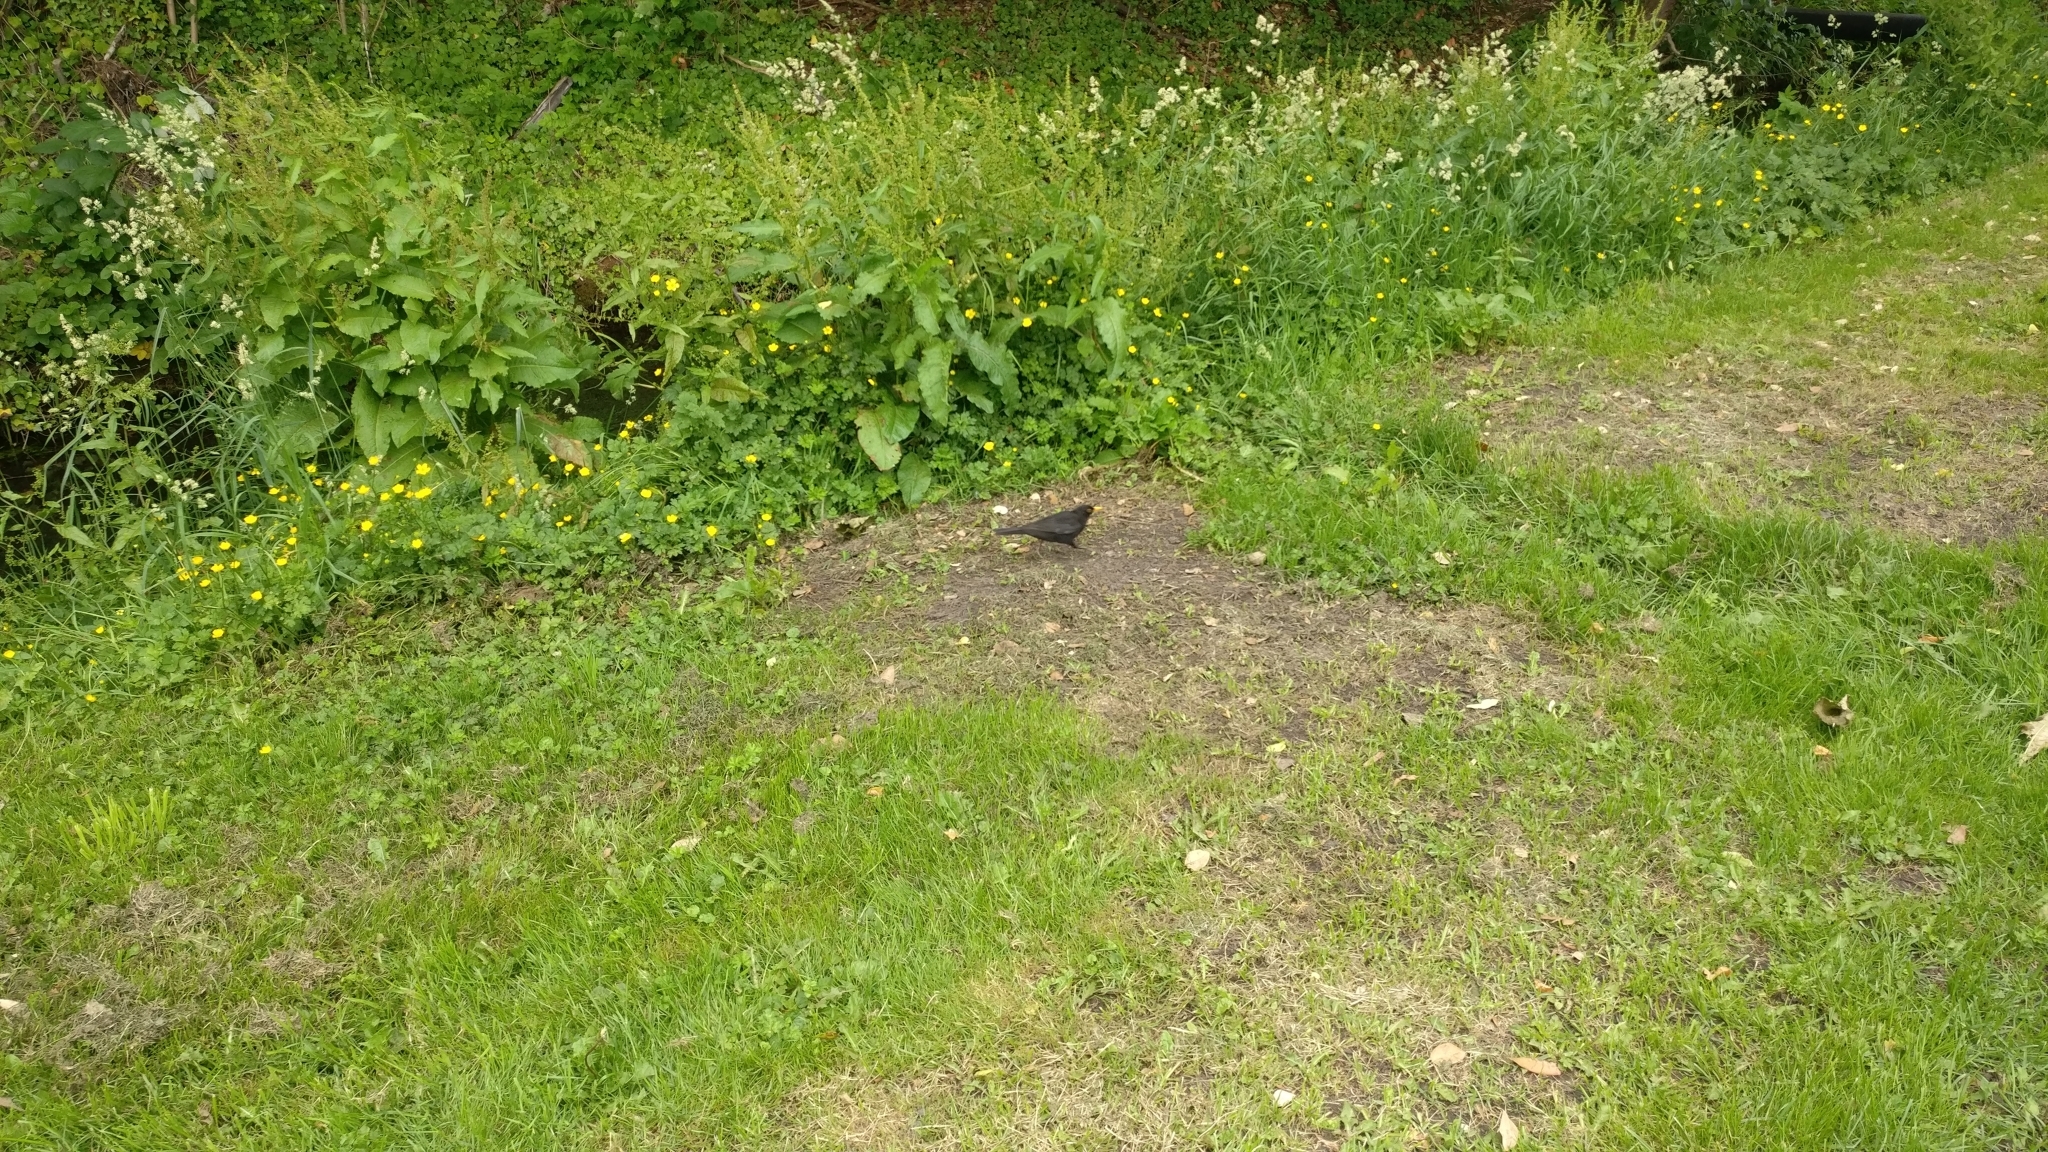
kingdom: Animalia
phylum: Chordata
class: Aves
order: Passeriformes
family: Turdidae
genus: Turdus
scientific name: Turdus merula
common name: Common blackbird
